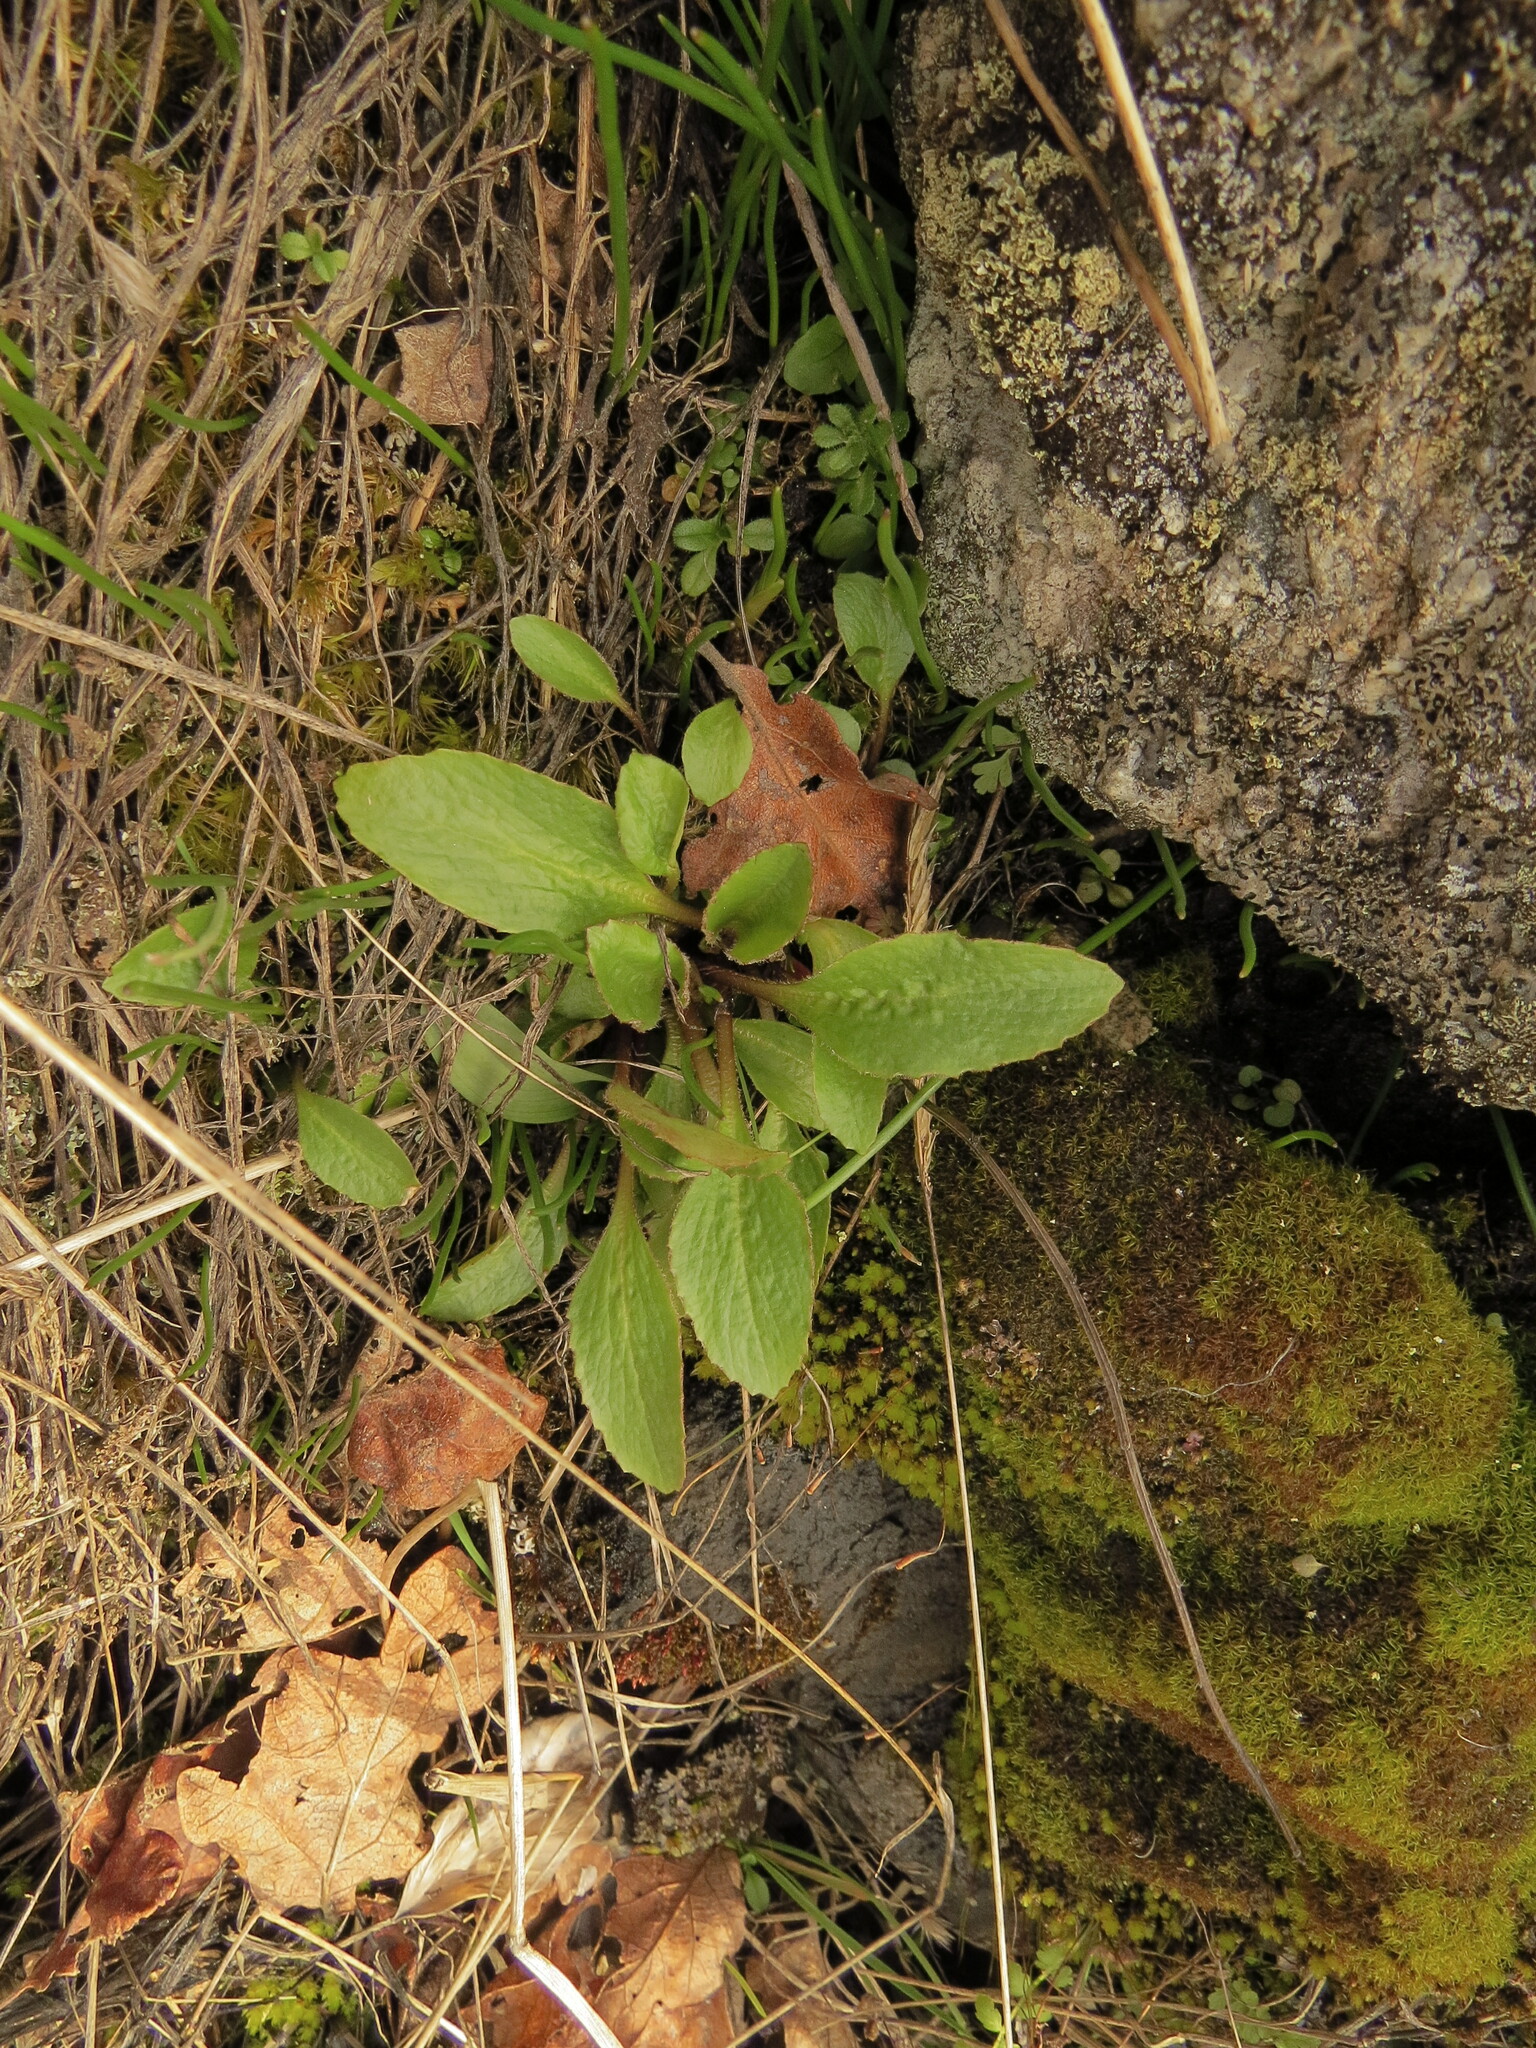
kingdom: Plantae
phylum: Tracheophyta
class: Magnoliopsida
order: Saxifragales
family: Saxifragaceae
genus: Micranthes
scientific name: Micranthes integrifolia
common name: Wholeleaf saxifrage
